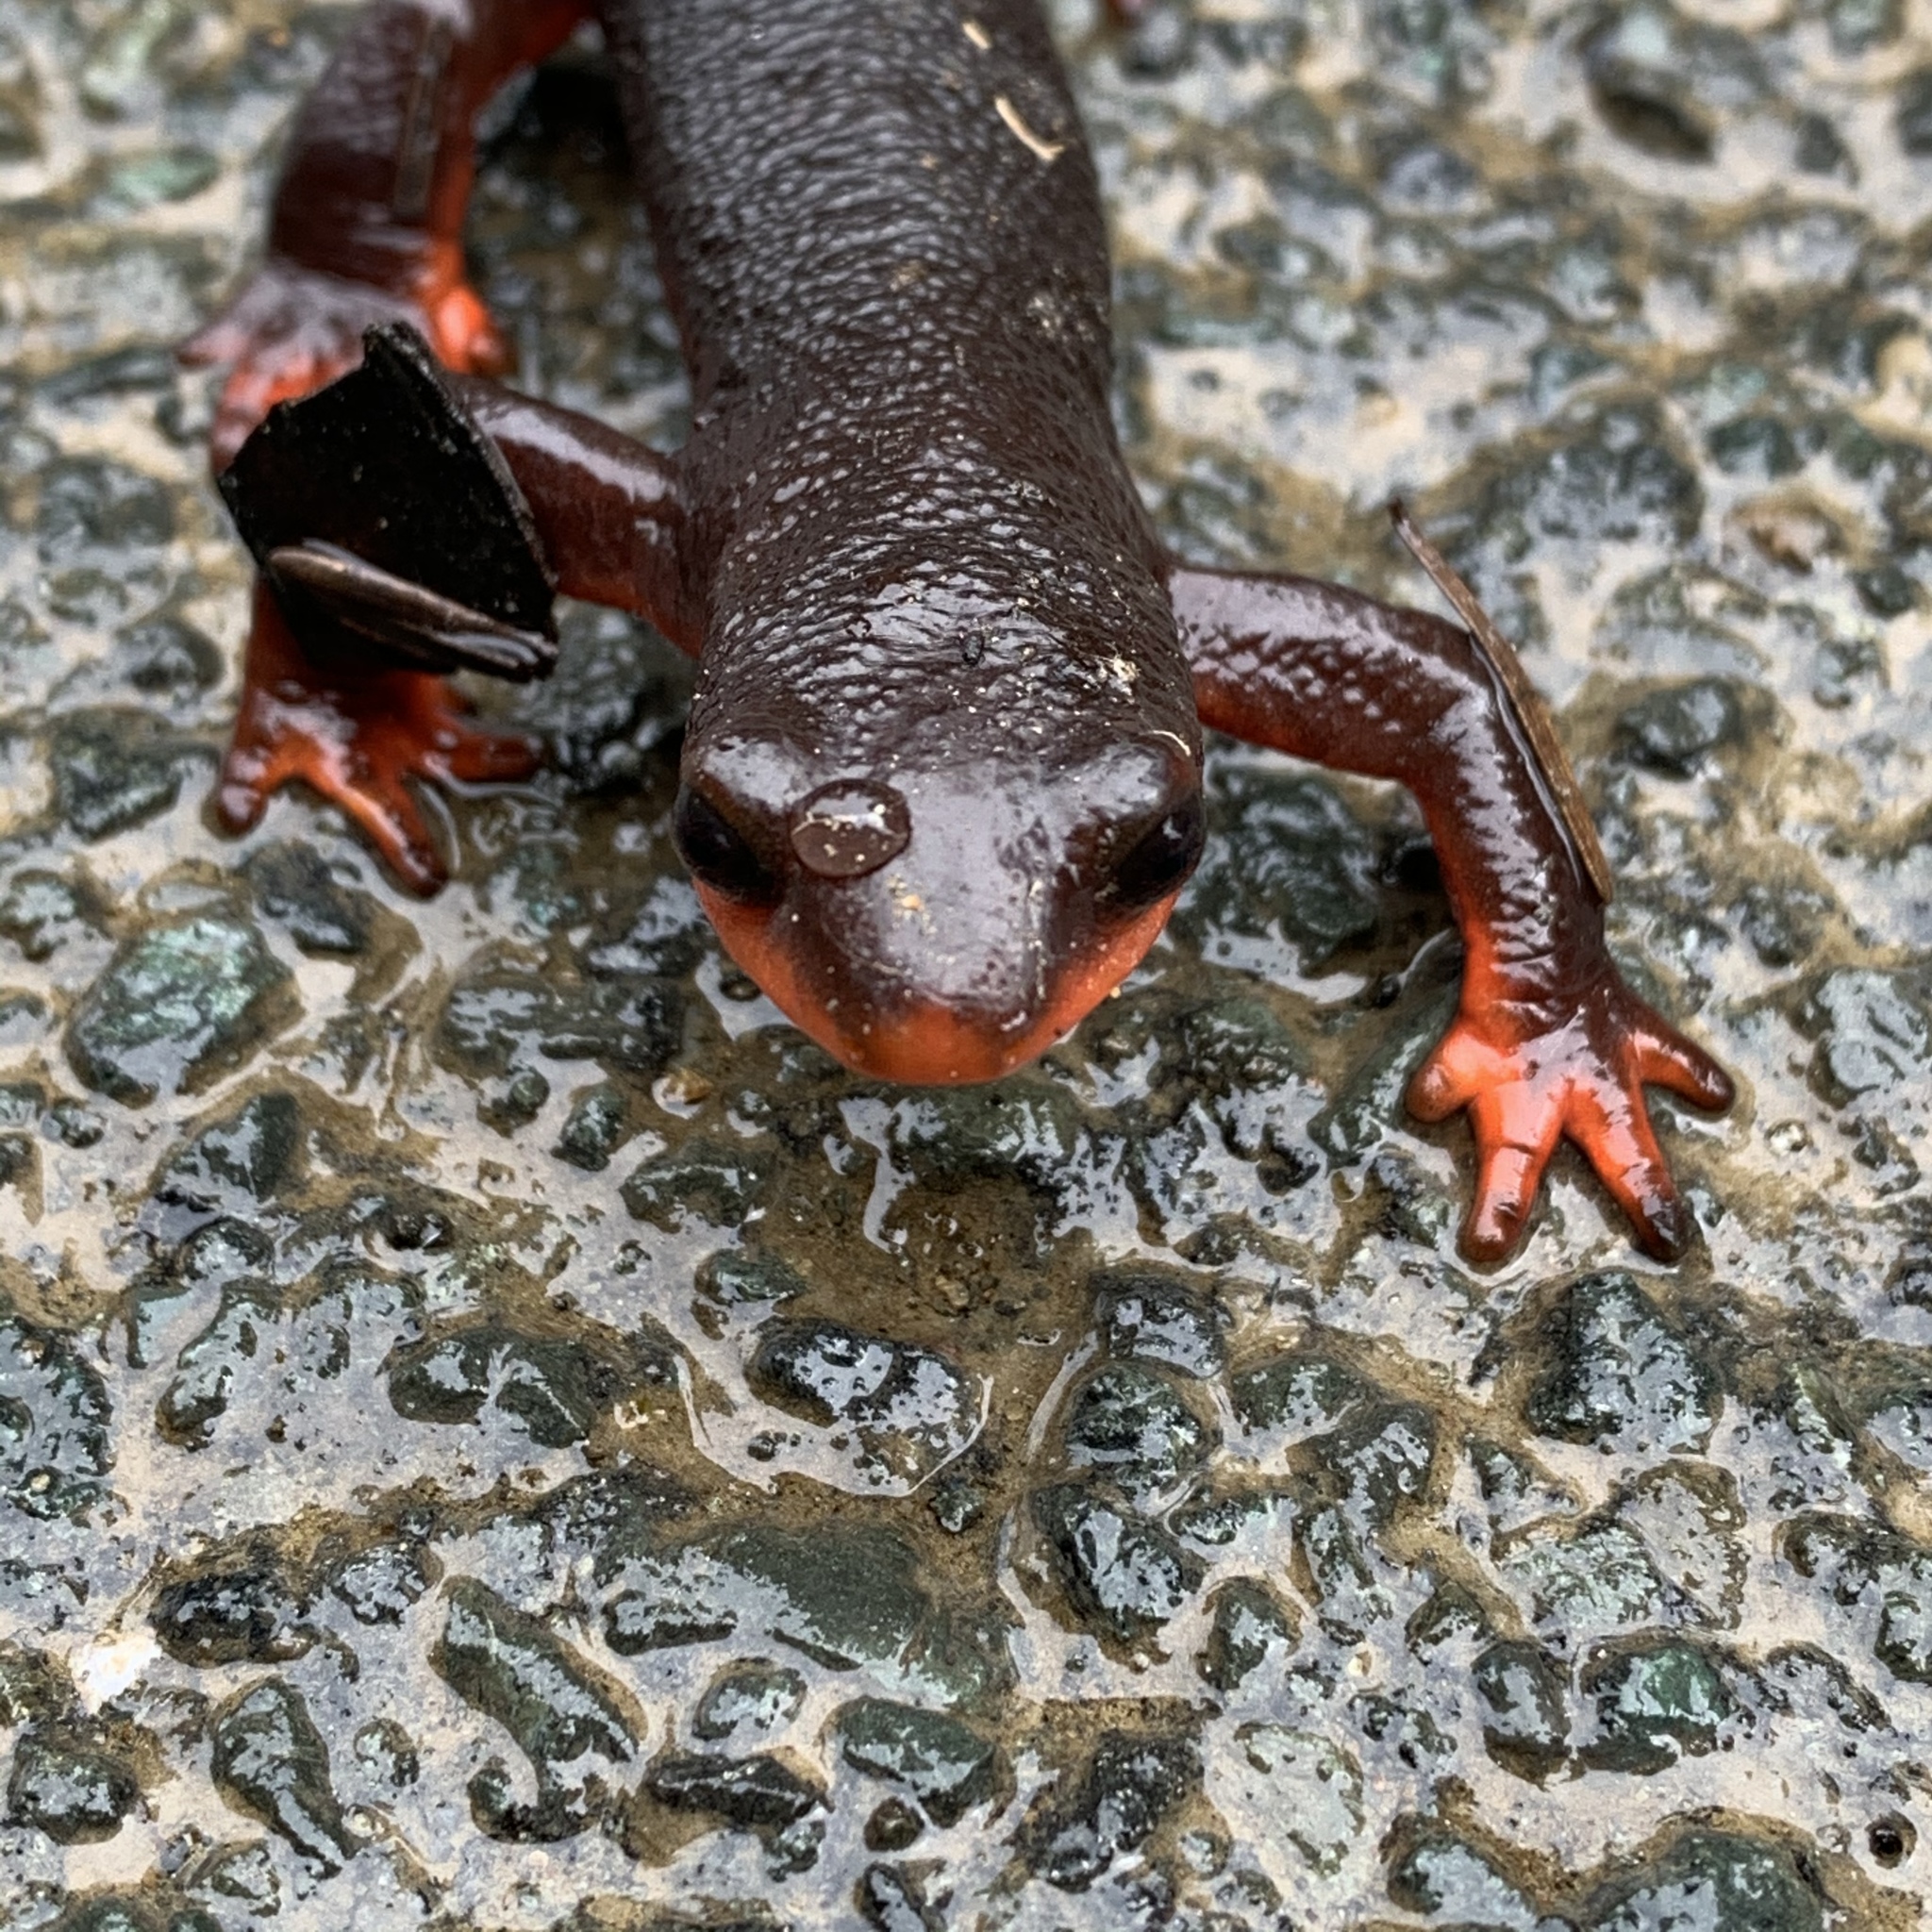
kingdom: Animalia
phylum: Chordata
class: Amphibia
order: Caudata
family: Salamandridae
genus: Taricha
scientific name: Taricha rivularis
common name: Red-bellied newt
